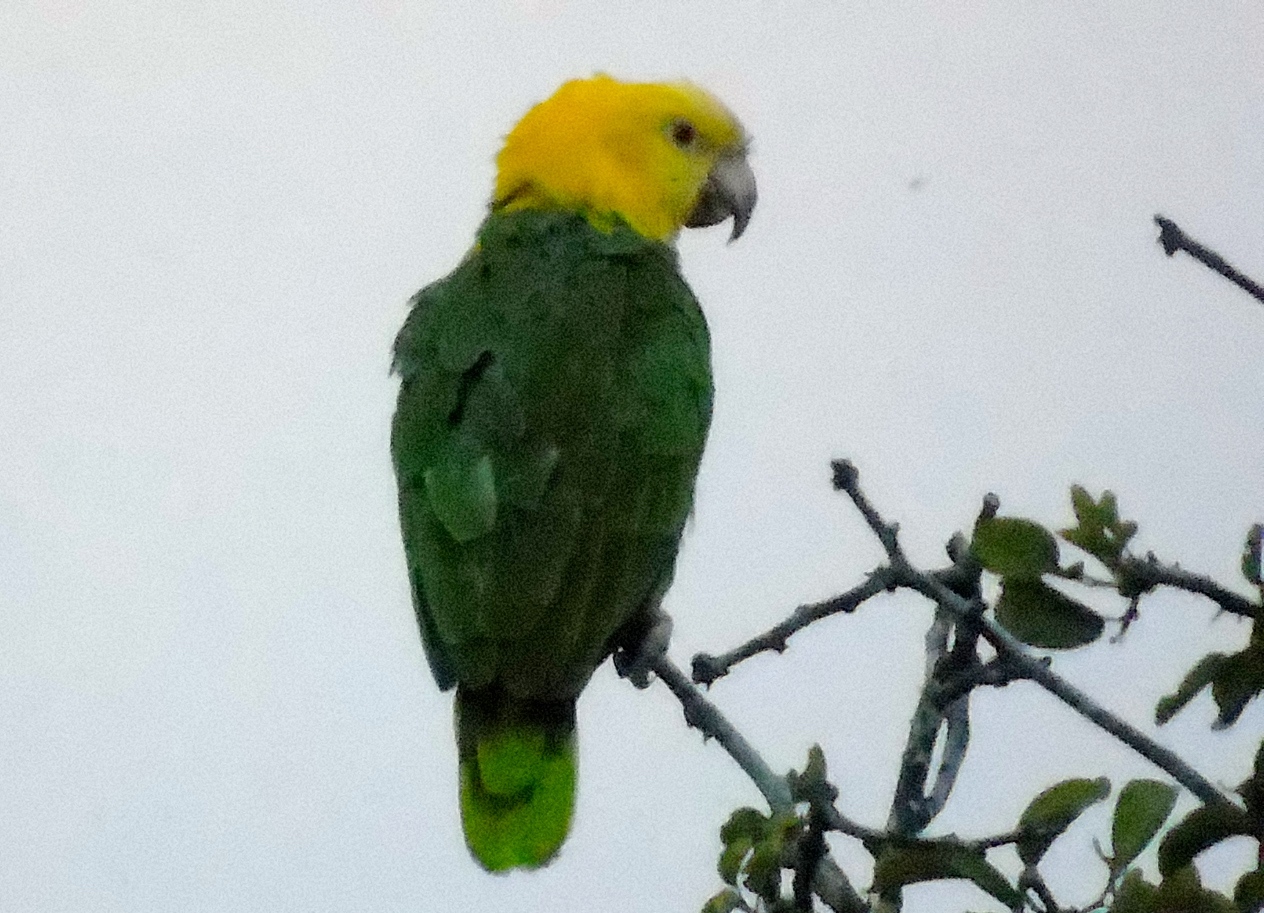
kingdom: Animalia
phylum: Chordata
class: Aves
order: Psittaciformes
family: Psittacidae
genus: Amazona
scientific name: Amazona oratrix
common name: Yellow-headed amazon
